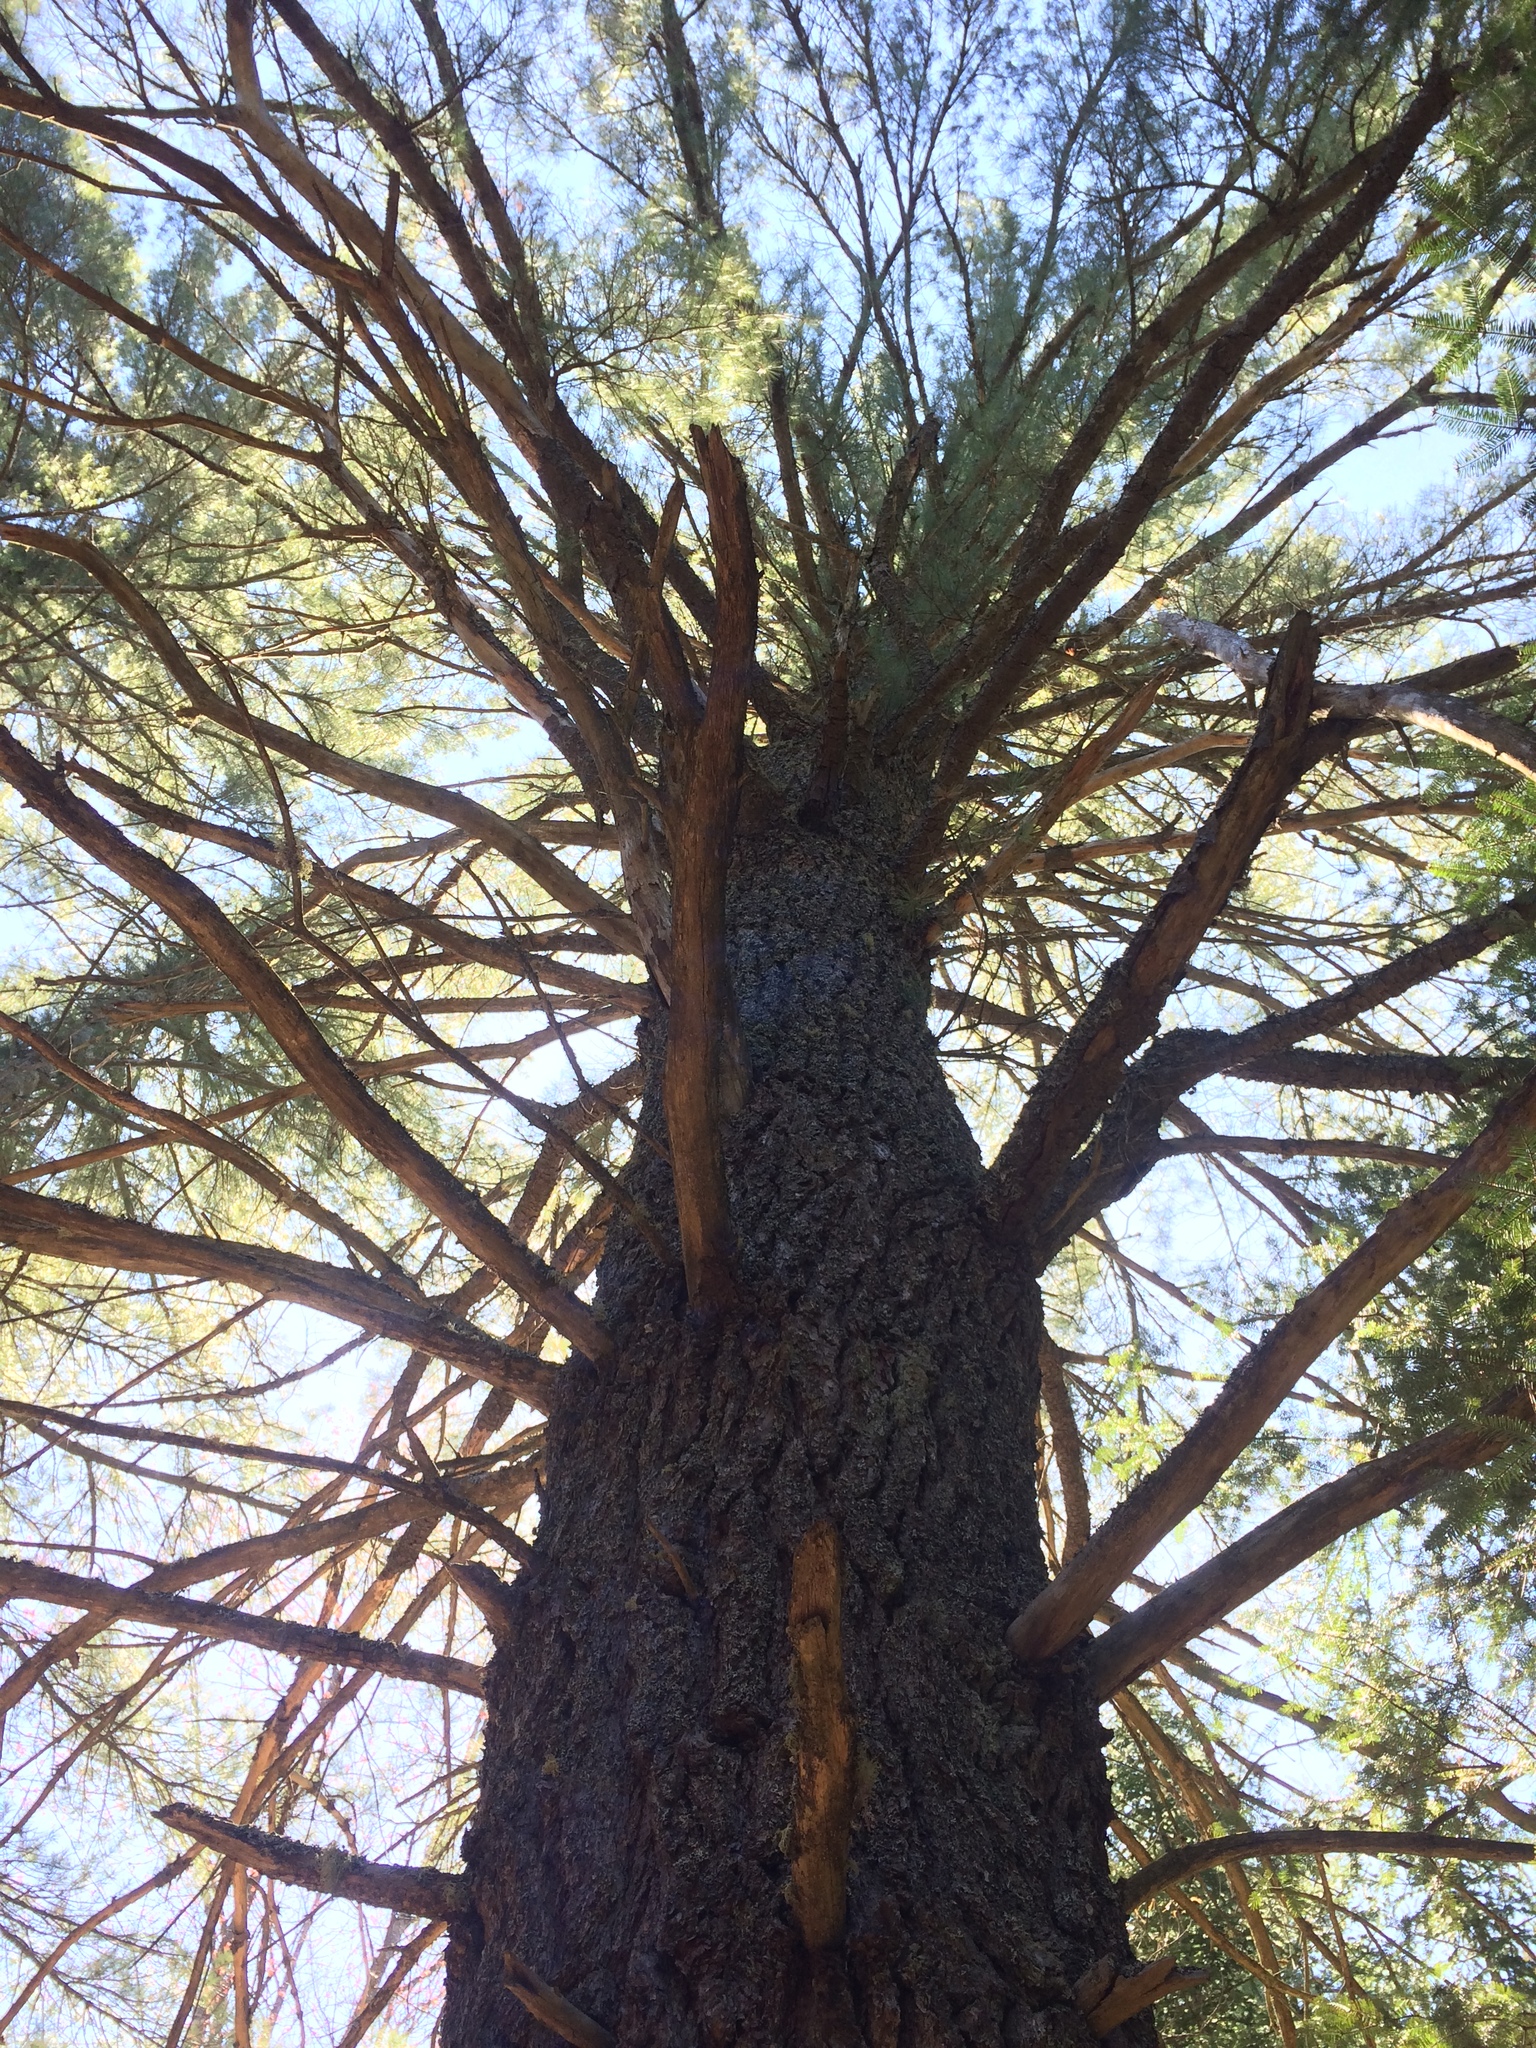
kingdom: Plantae
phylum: Tracheophyta
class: Pinopsida
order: Pinales
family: Pinaceae
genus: Pinus
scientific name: Pinus strobus
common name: Weymouth pine
